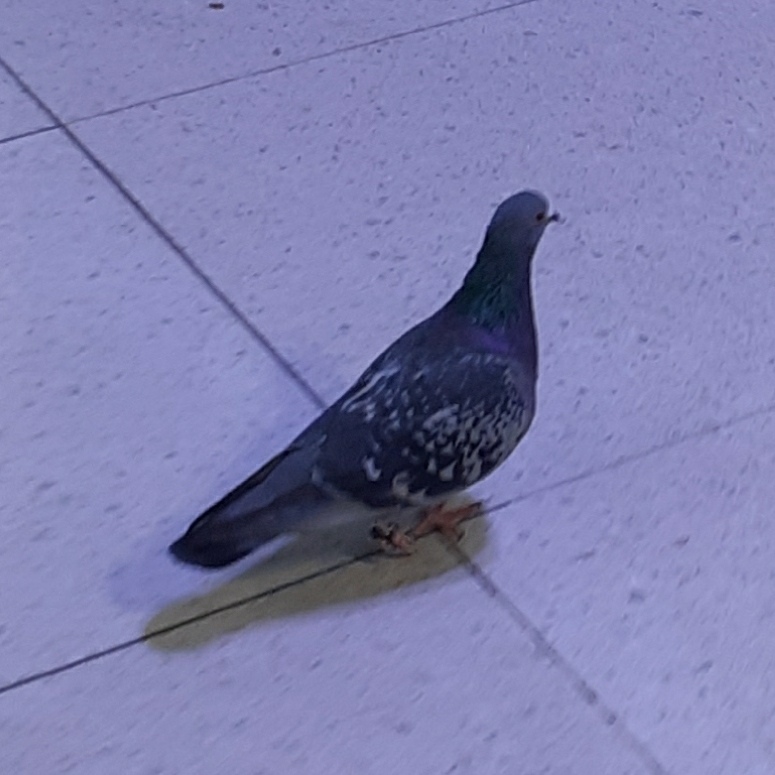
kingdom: Animalia
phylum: Chordata
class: Aves
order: Columbiformes
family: Columbidae
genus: Columba
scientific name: Columba livia
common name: Rock pigeon
